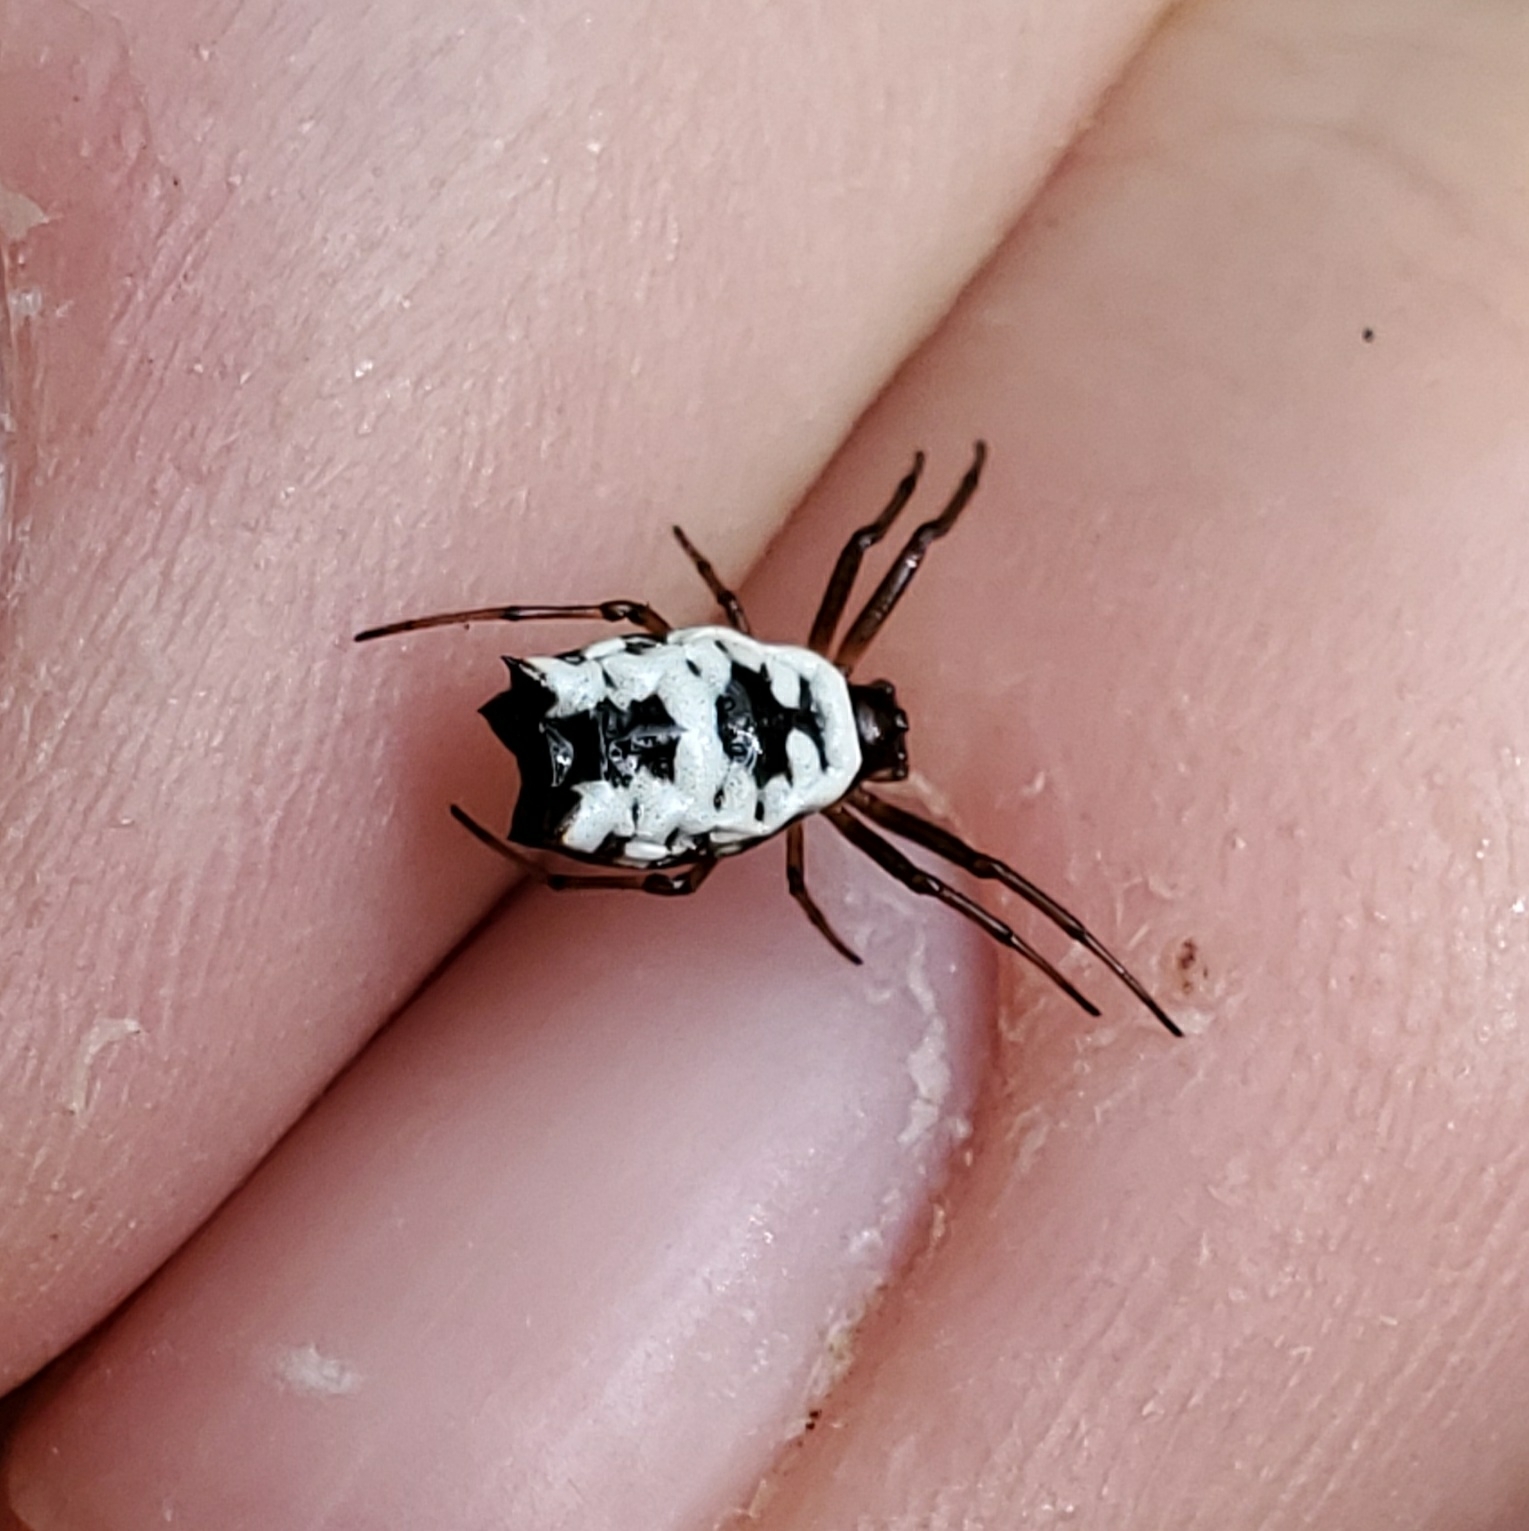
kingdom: Animalia
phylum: Arthropoda
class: Arachnida
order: Araneae
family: Araneidae
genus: Micrathena
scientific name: Micrathena mitrata
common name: Orb weavers
